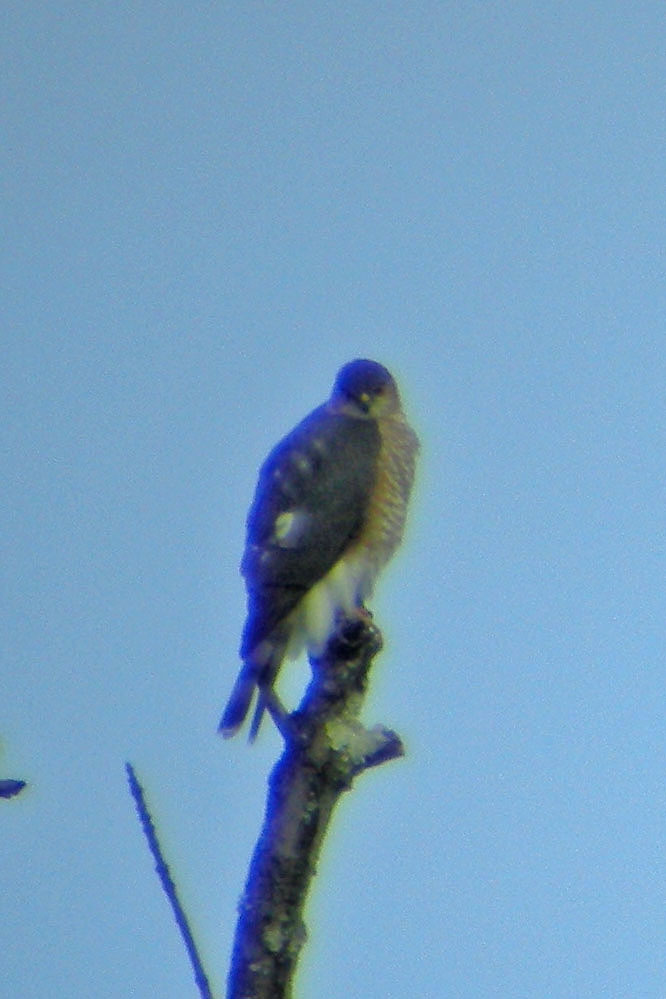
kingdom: Animalia
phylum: Chordata
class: Aves
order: Accipitriformes
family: Accipitridae
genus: Accipiter
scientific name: Accipiter striatus
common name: Sharp-shinned hawk
